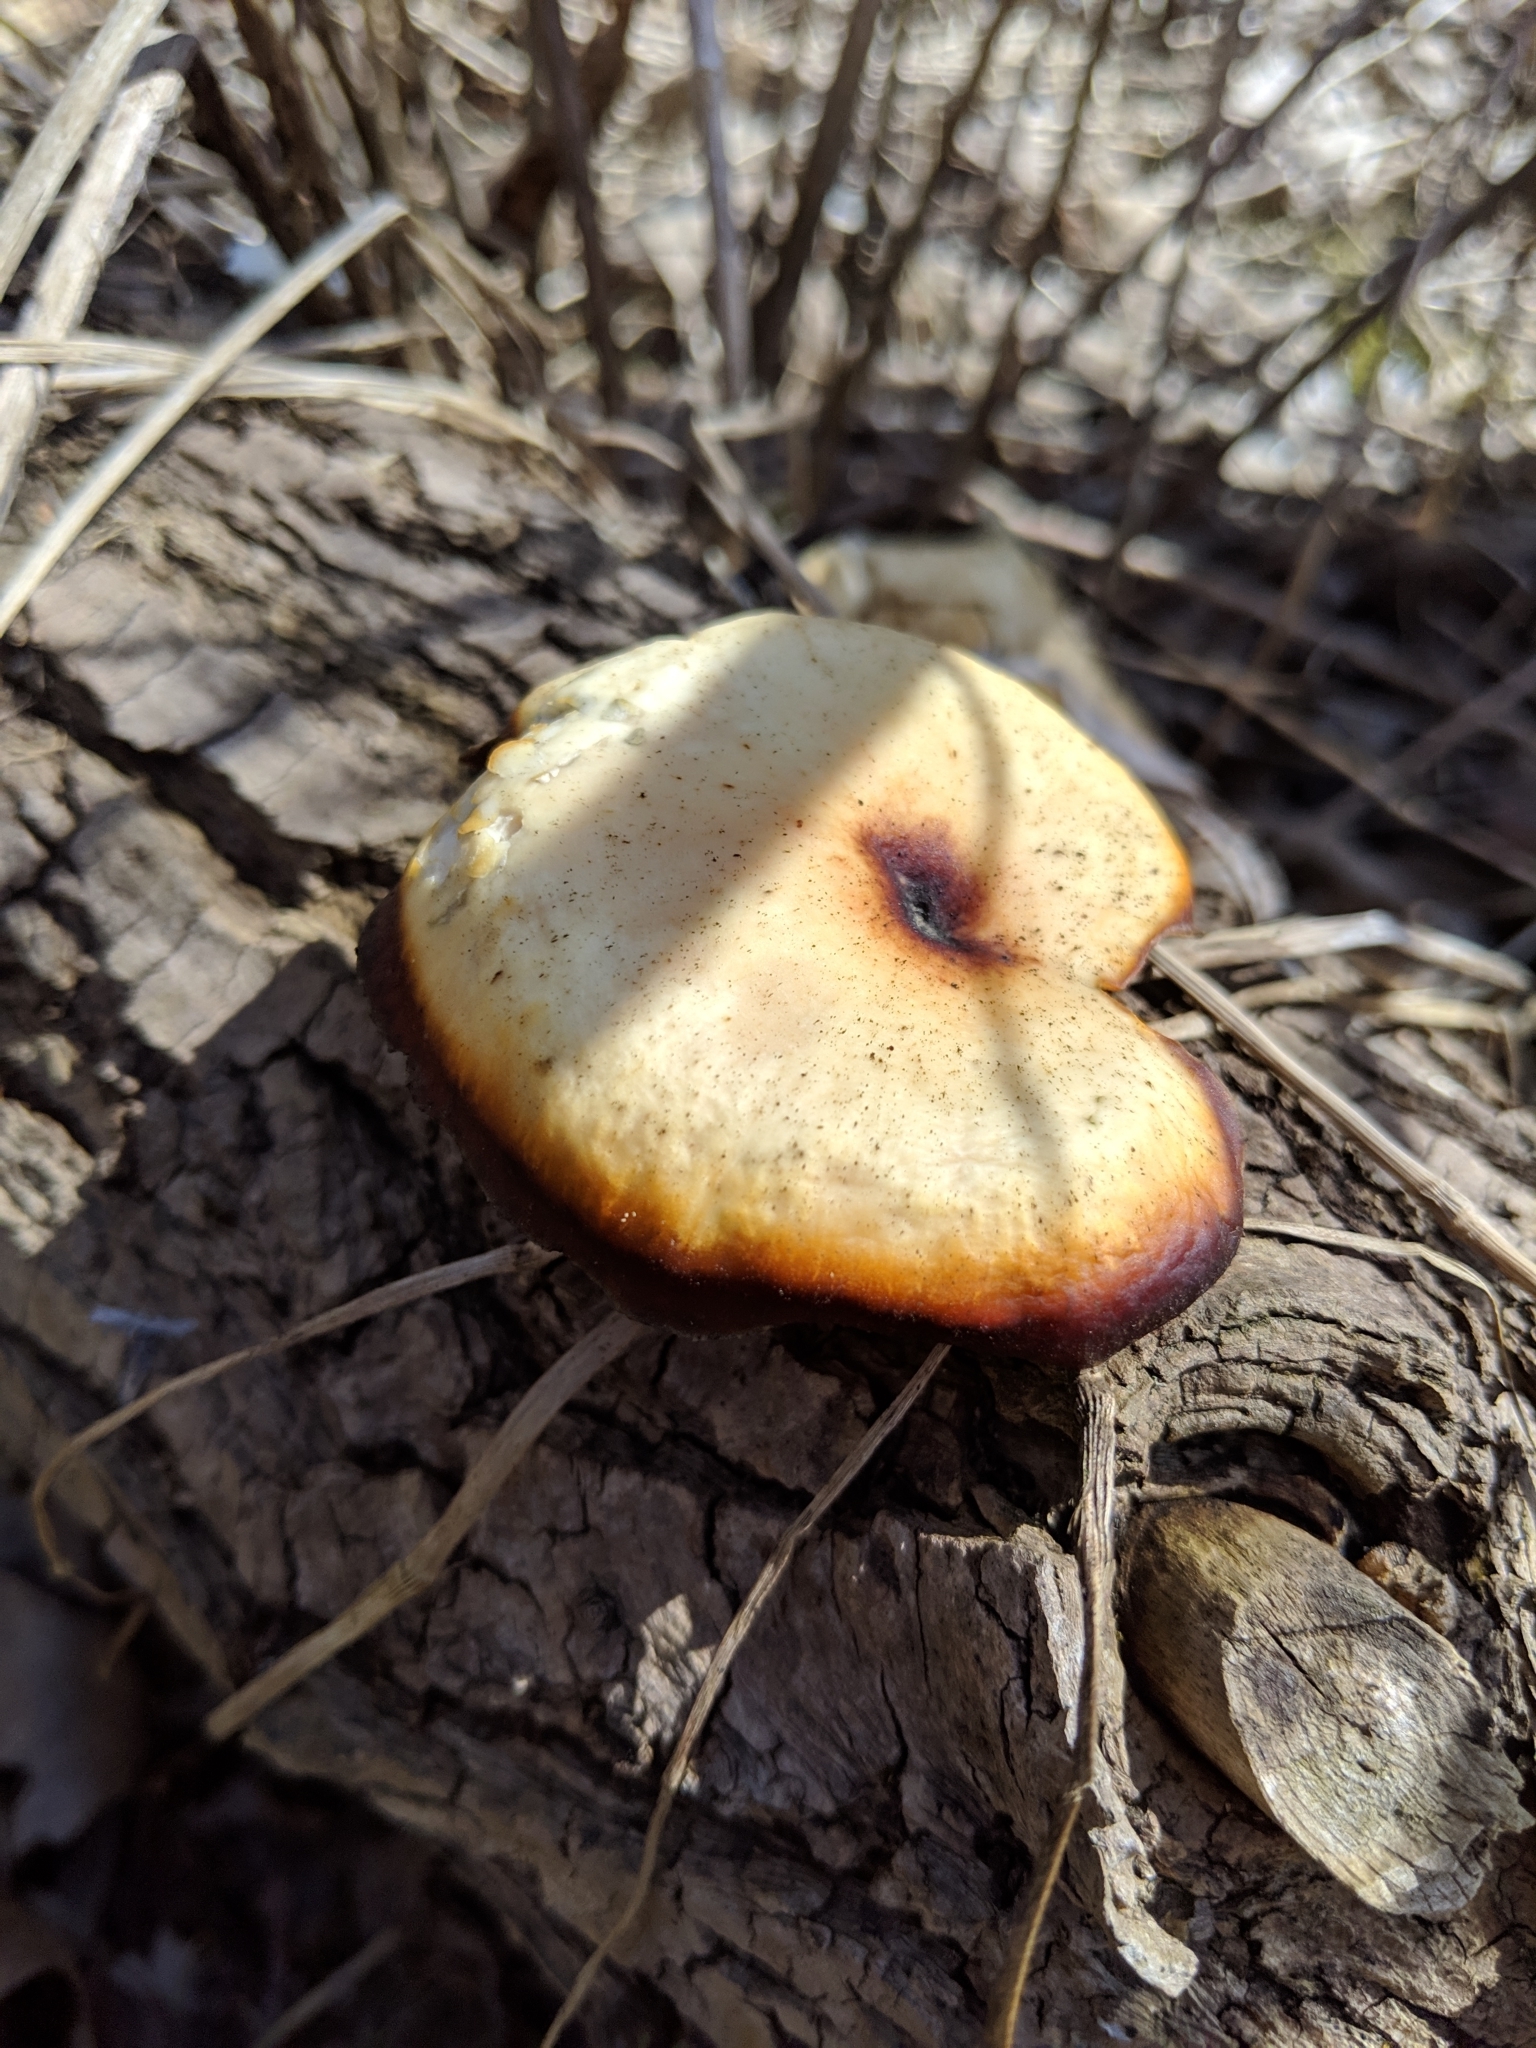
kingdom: Fungi
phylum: Basidiomycota
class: Agaricomycetes
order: Polyporales
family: Polyporaceae
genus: Cerioporus
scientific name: Cerioporus squamosus
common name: Dryad's saddle
